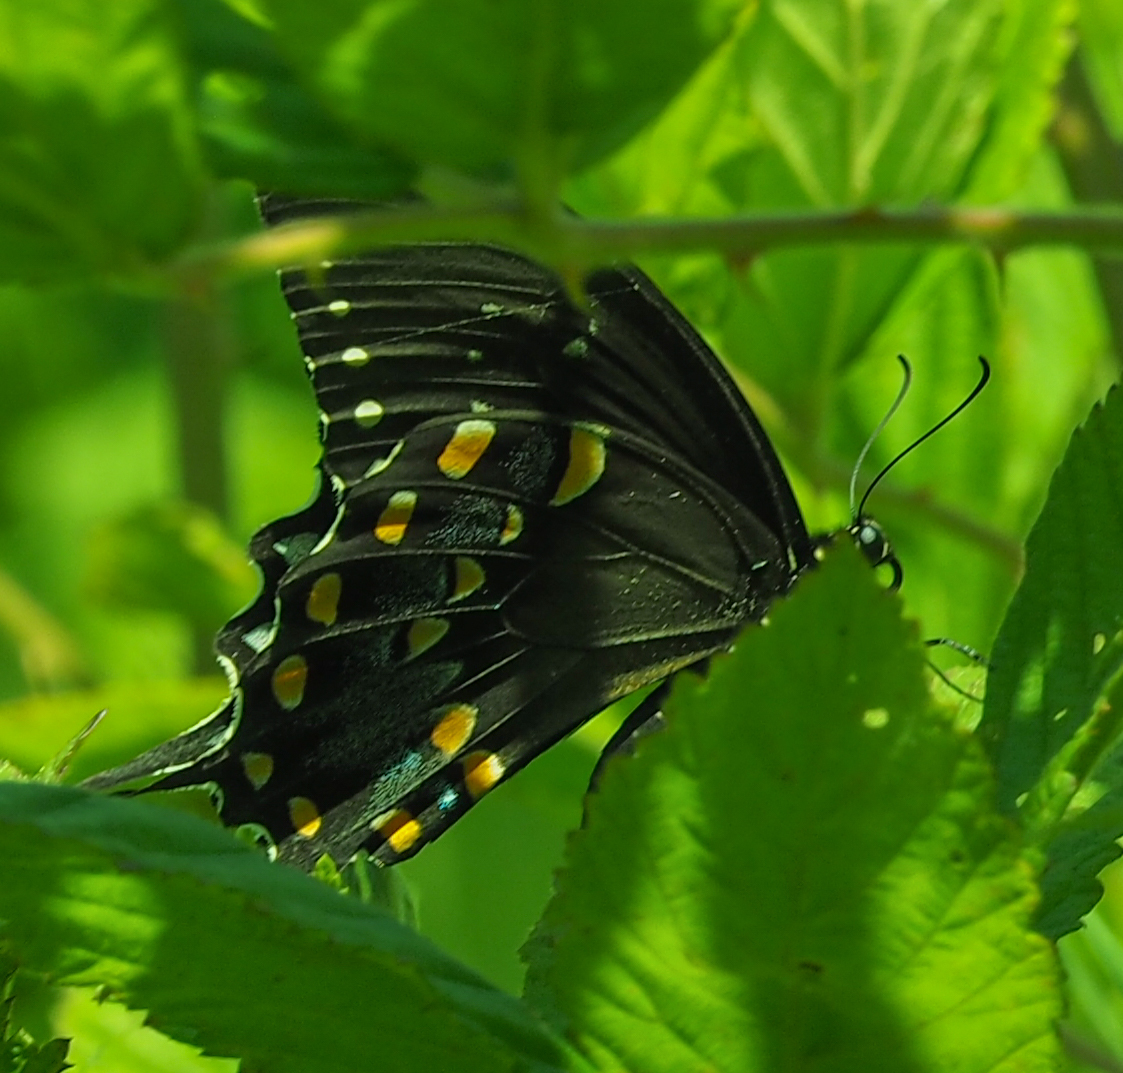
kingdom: Animalia
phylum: Arthropoda
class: Insecta
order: Lepidoptera
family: Papilionidae
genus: Papilio
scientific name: Papilio troilus
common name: Spicebush swallowtail
